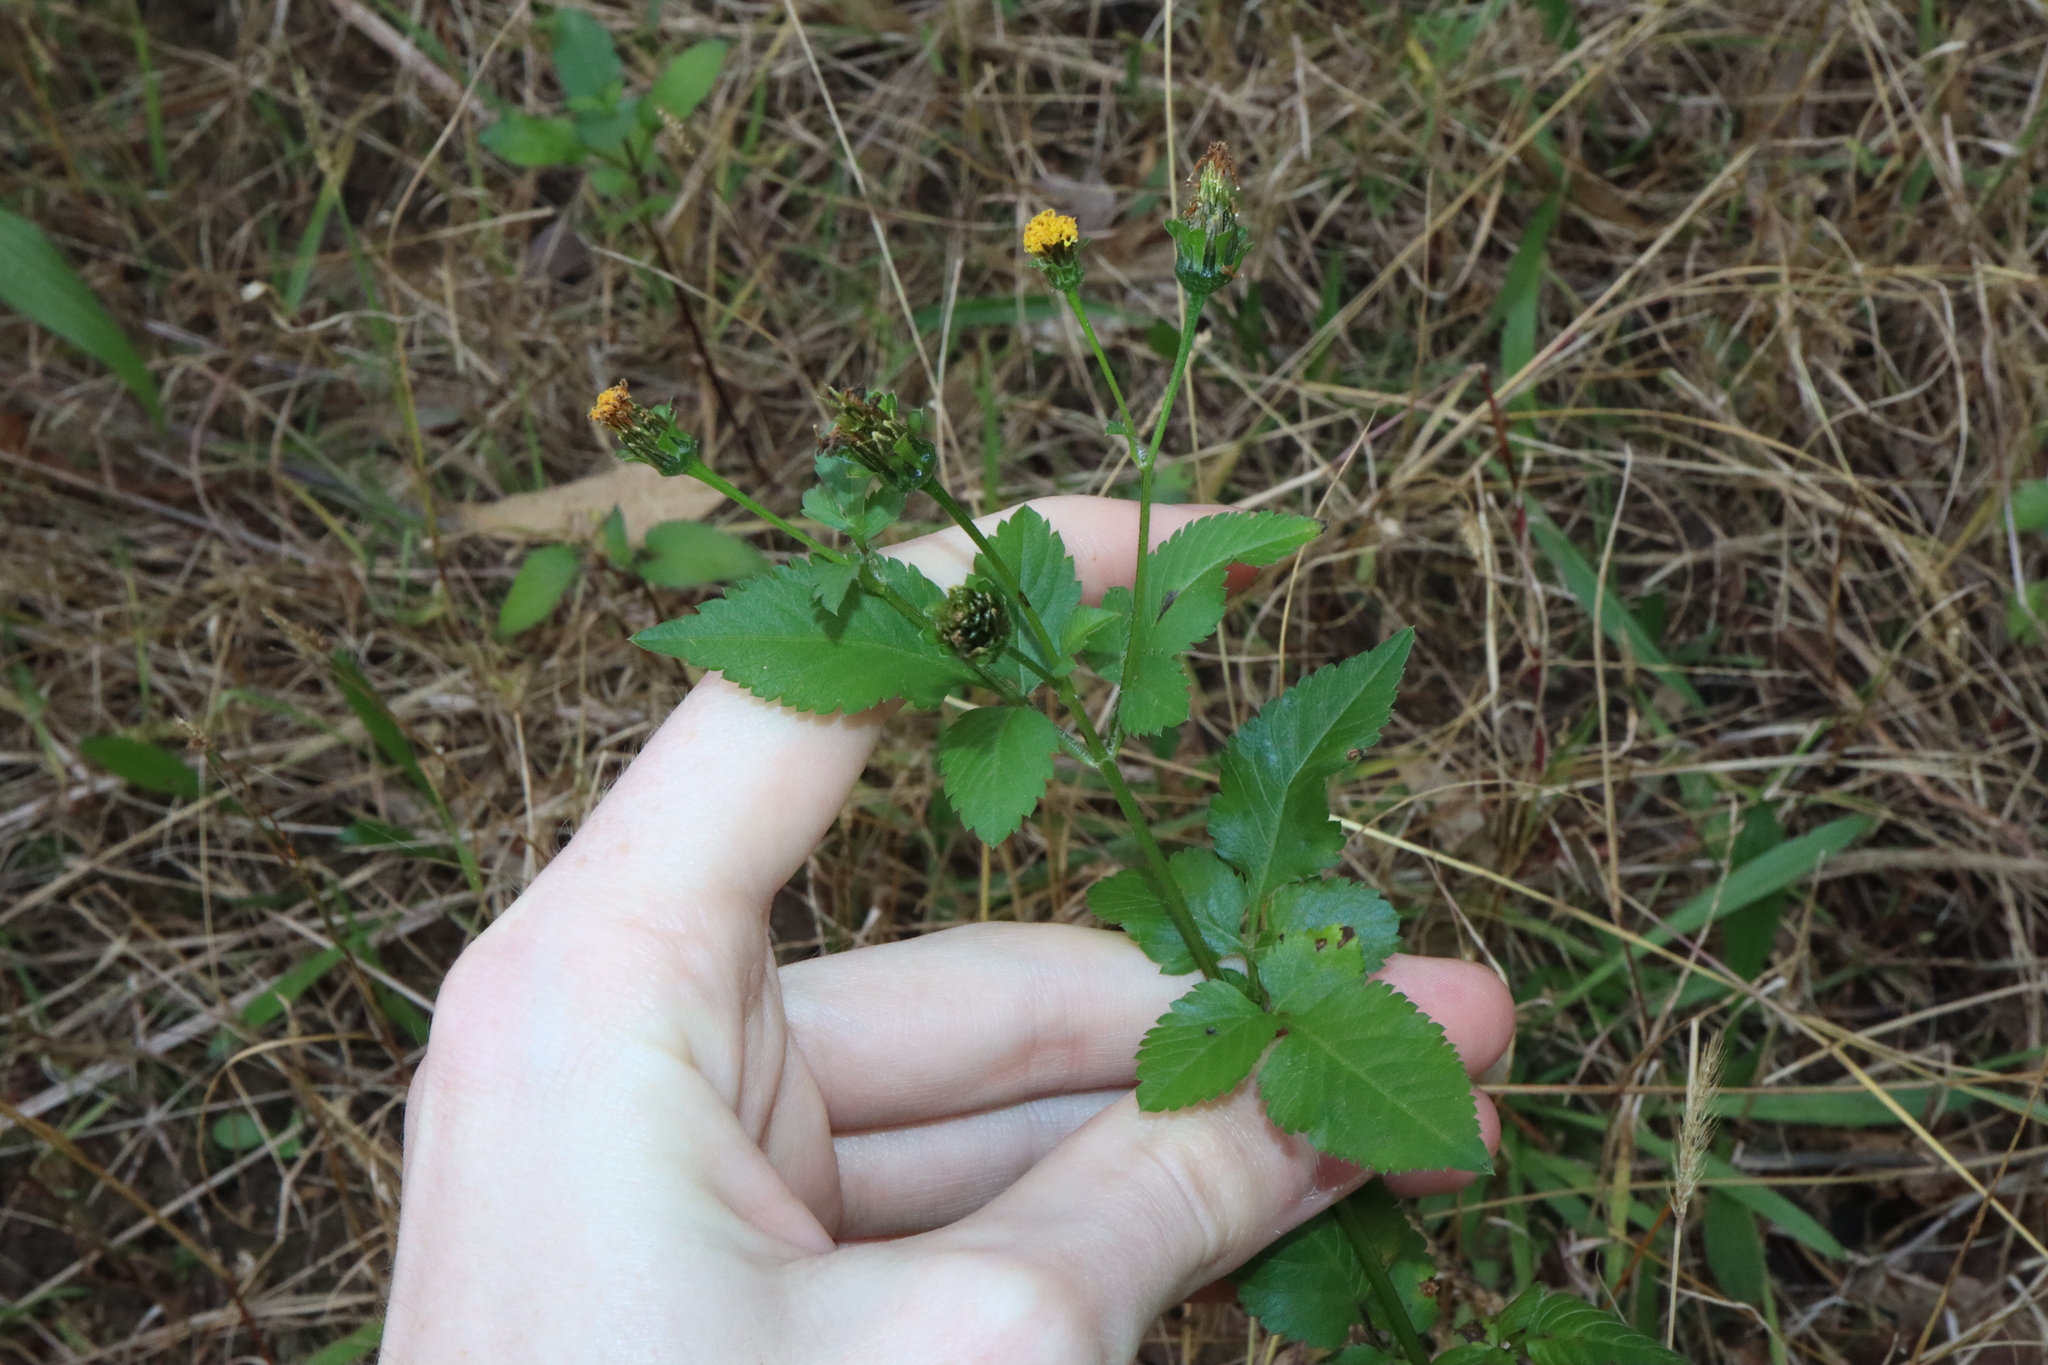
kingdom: Plantae
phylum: Tracheophyta
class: Magnoliopsida
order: Asterales
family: Asteraceae
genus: Bidens
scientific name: Bidens pilosa
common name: Black-jack
